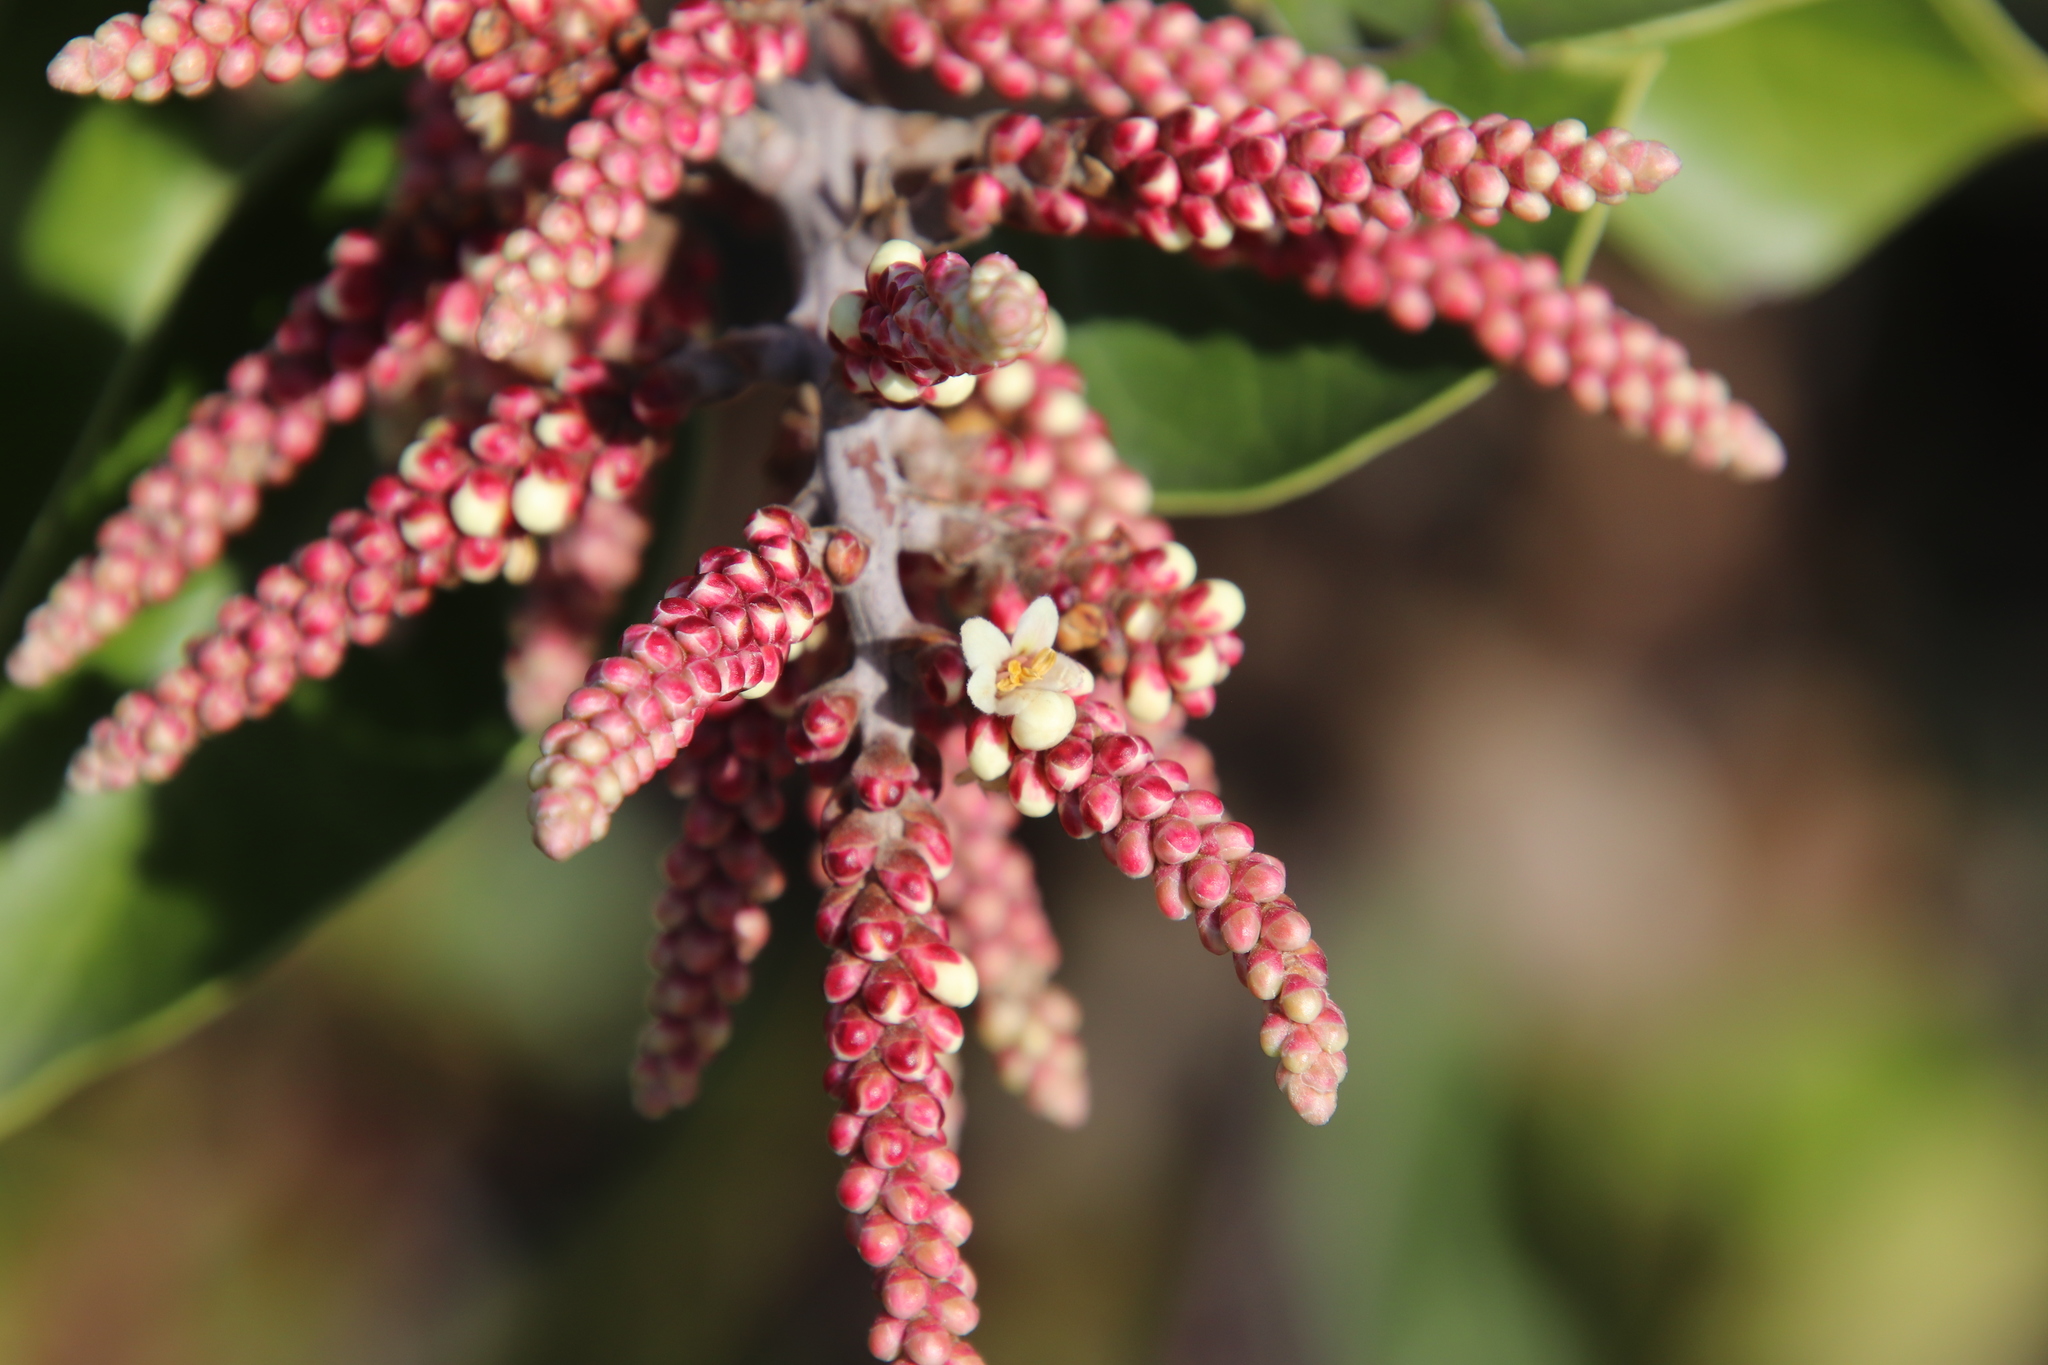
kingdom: Plantae
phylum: Tracheophyta
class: Magnoliopsida
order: Sapindales
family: Anacardiaceae
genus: Rhus
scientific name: Rhus ovata
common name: Sugar sumac
